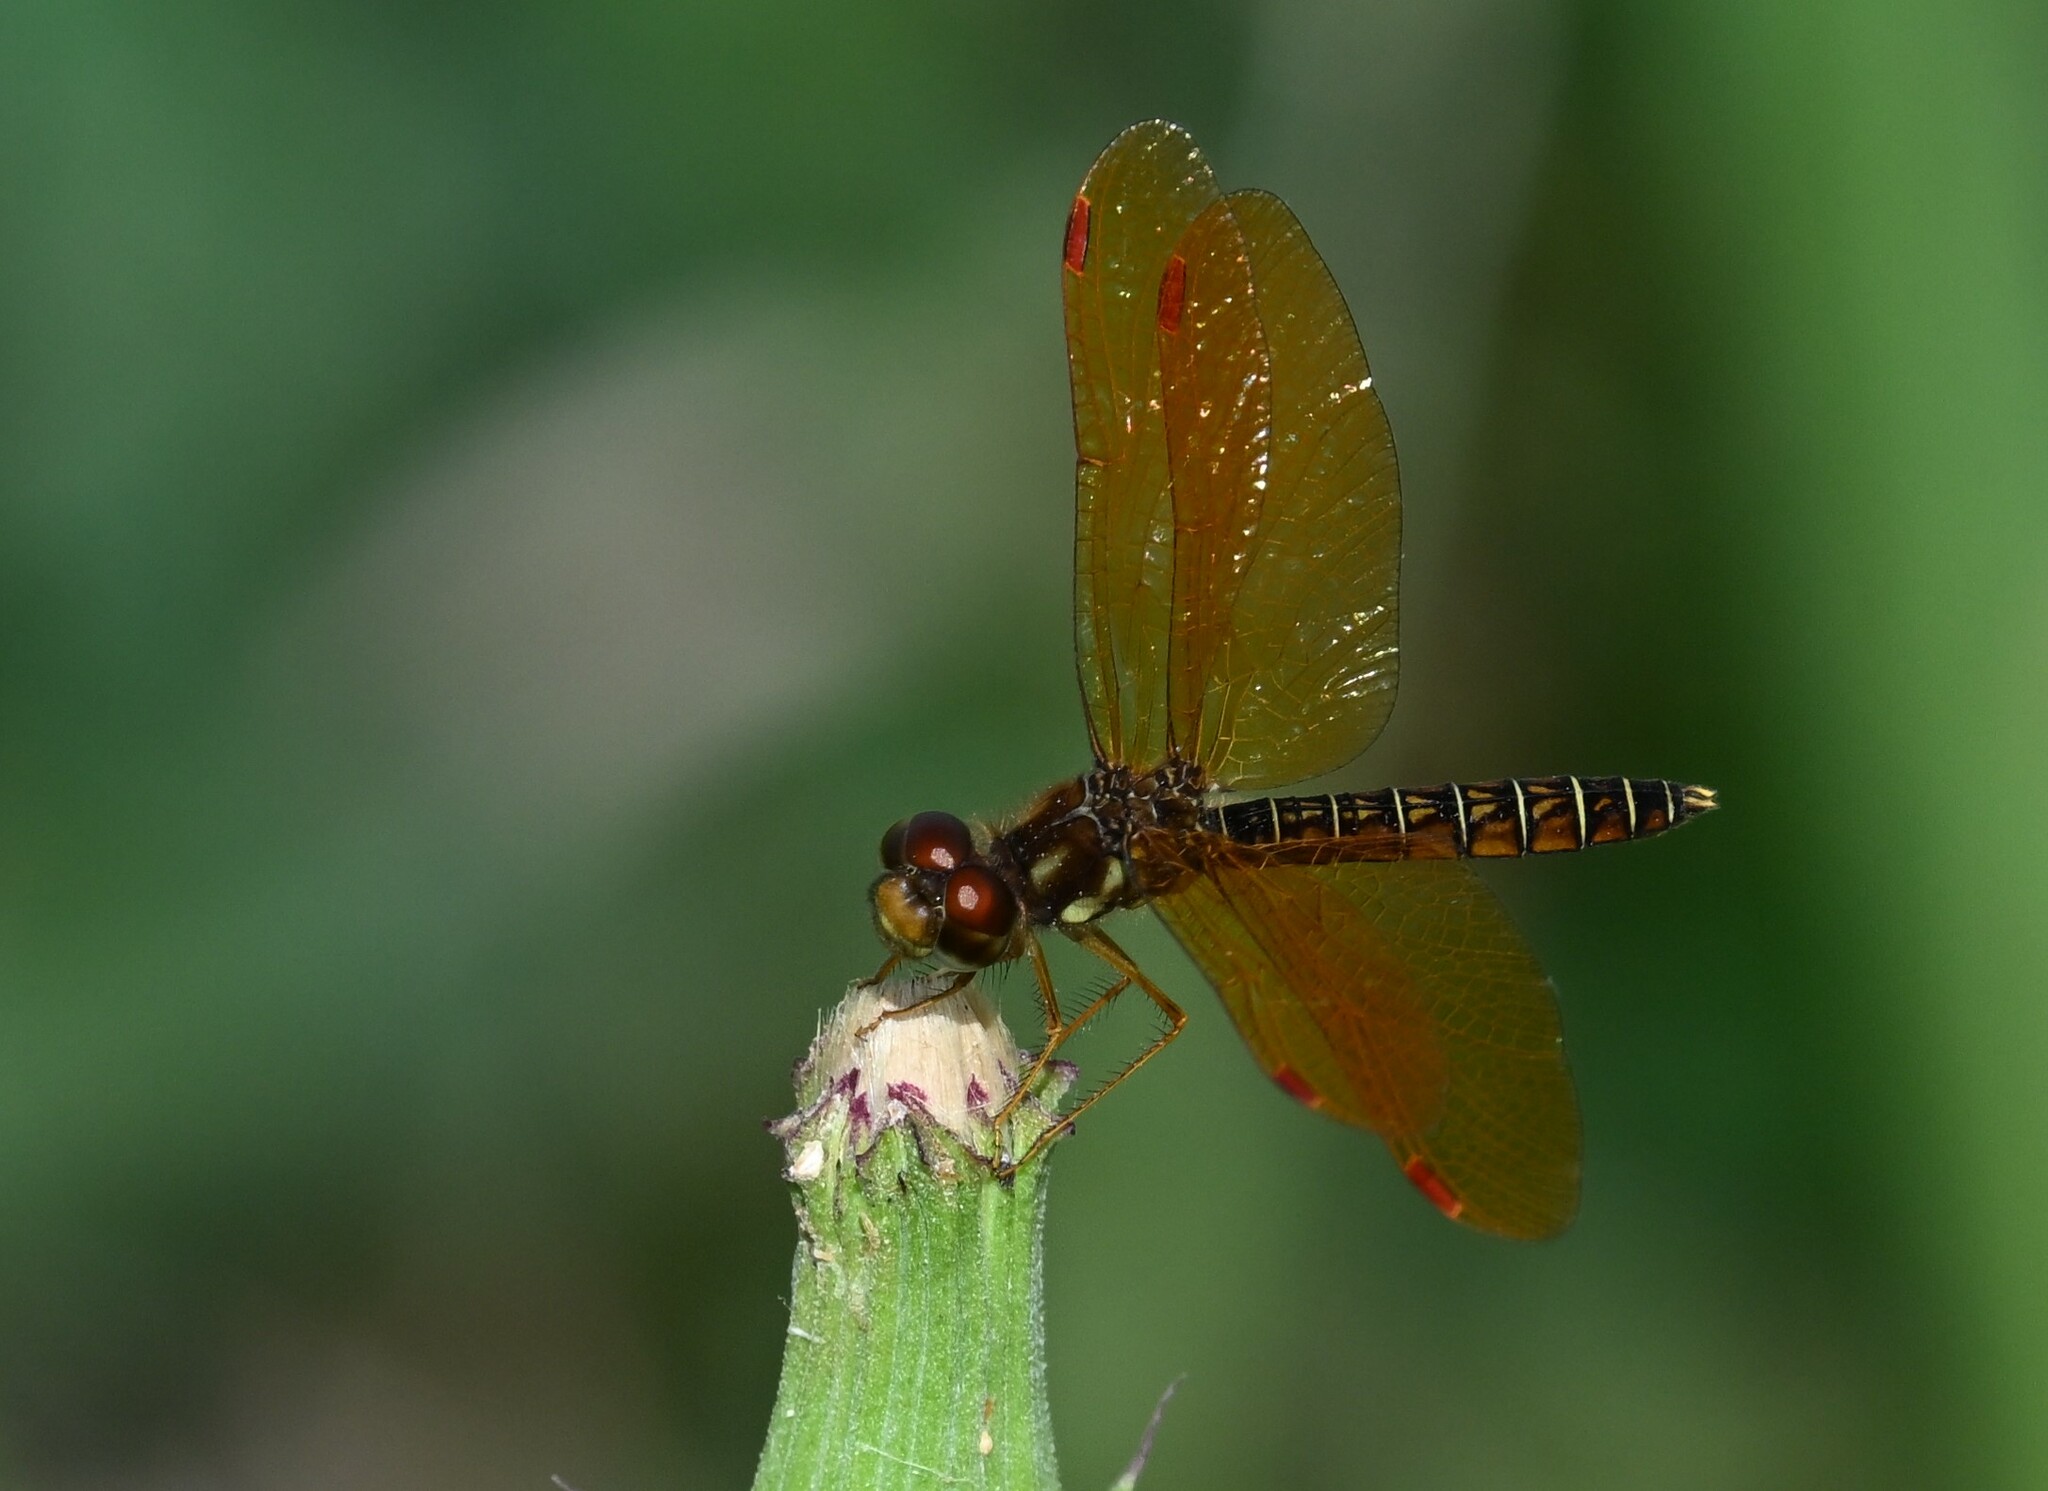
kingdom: Animalia
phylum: Arthropoda
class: Insecta
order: Odonata
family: Libellulidae
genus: Perithemis
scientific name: Perithemis tenera
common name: Eastern amberwing
